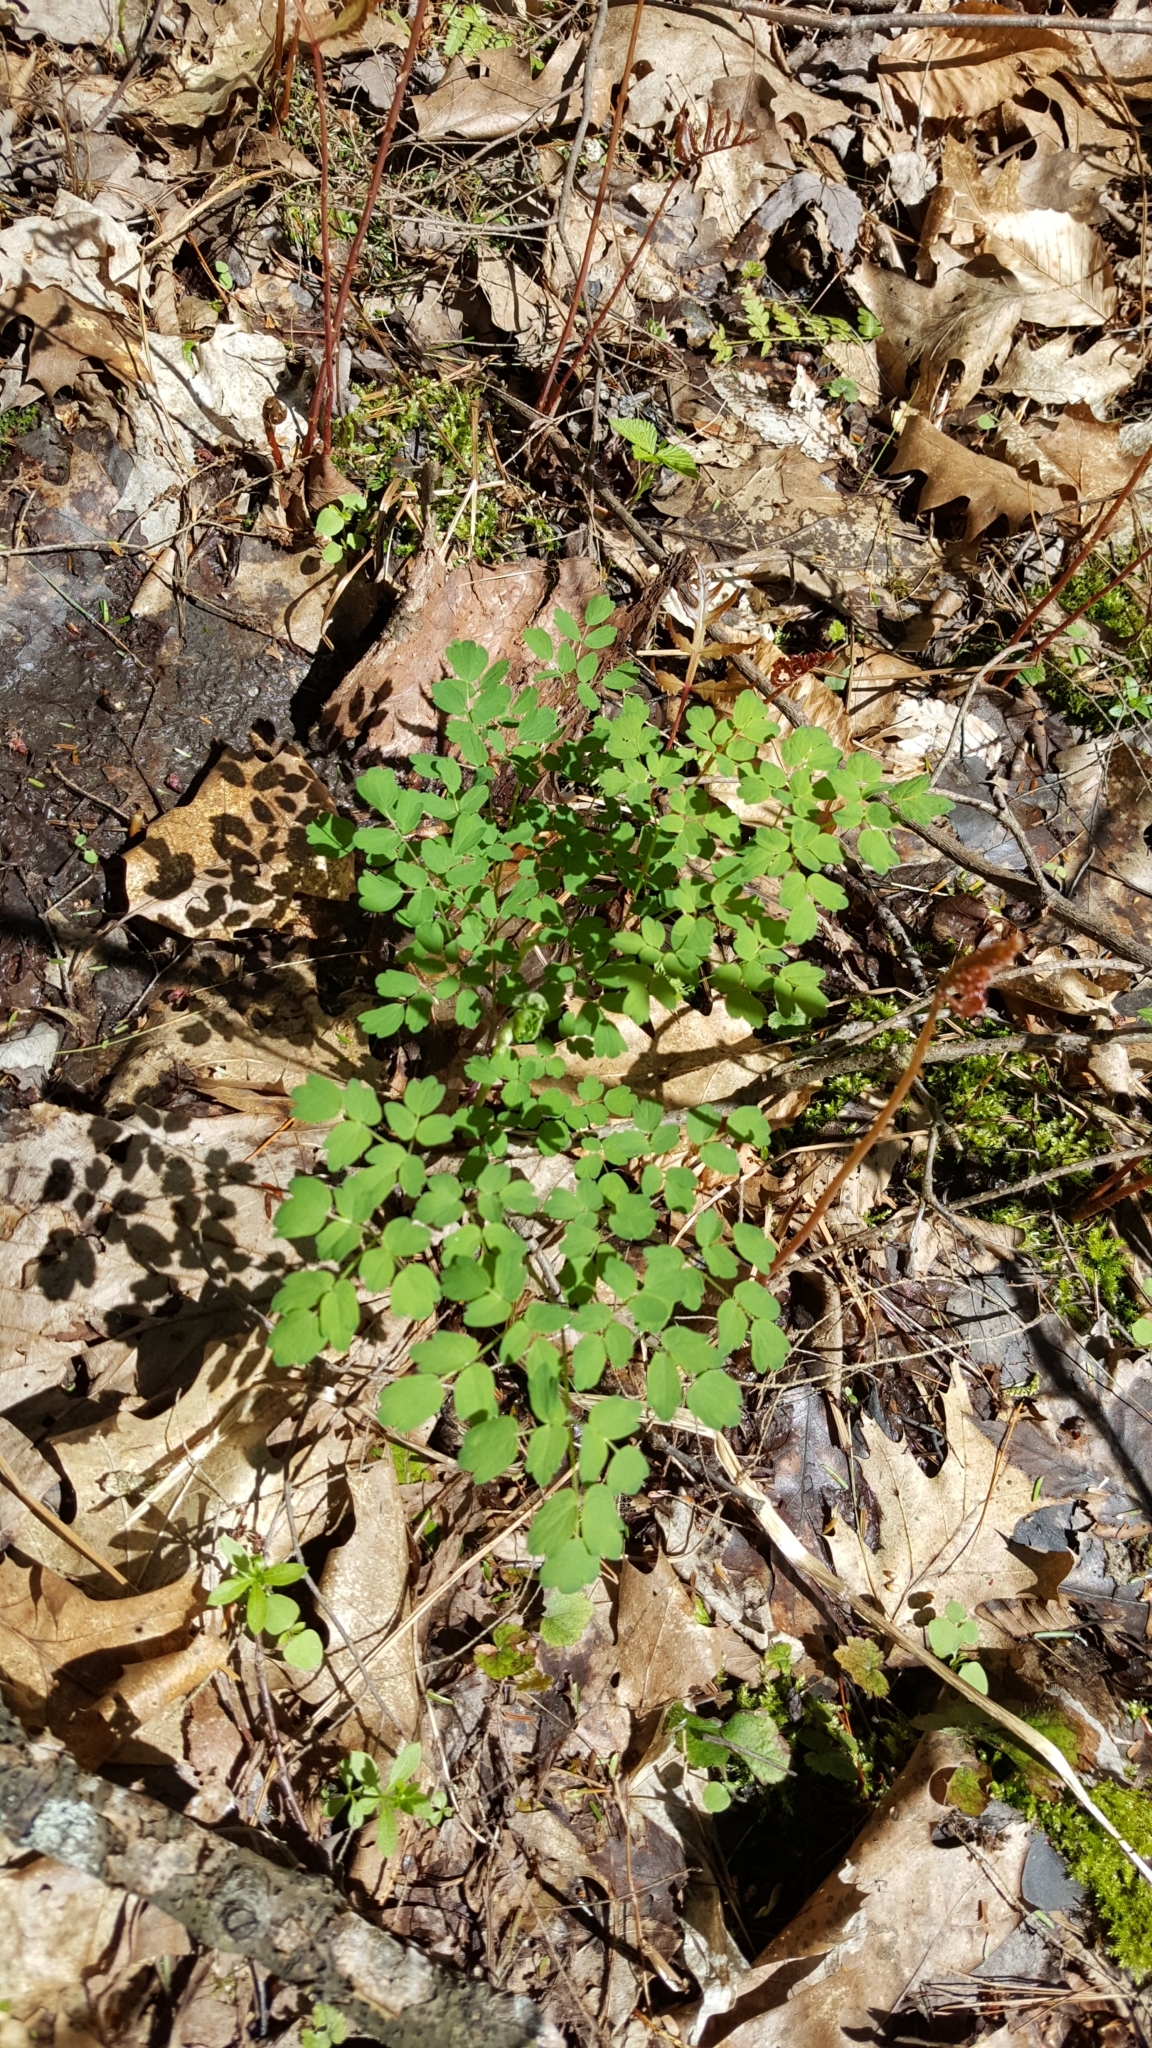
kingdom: Plantae
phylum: Tracheophyta
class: Magnoliopsida
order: Ranunculales
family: Ranunculaceae
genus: Thalictrum
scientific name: Thalictrum pubescens
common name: King-of-the-meadow
